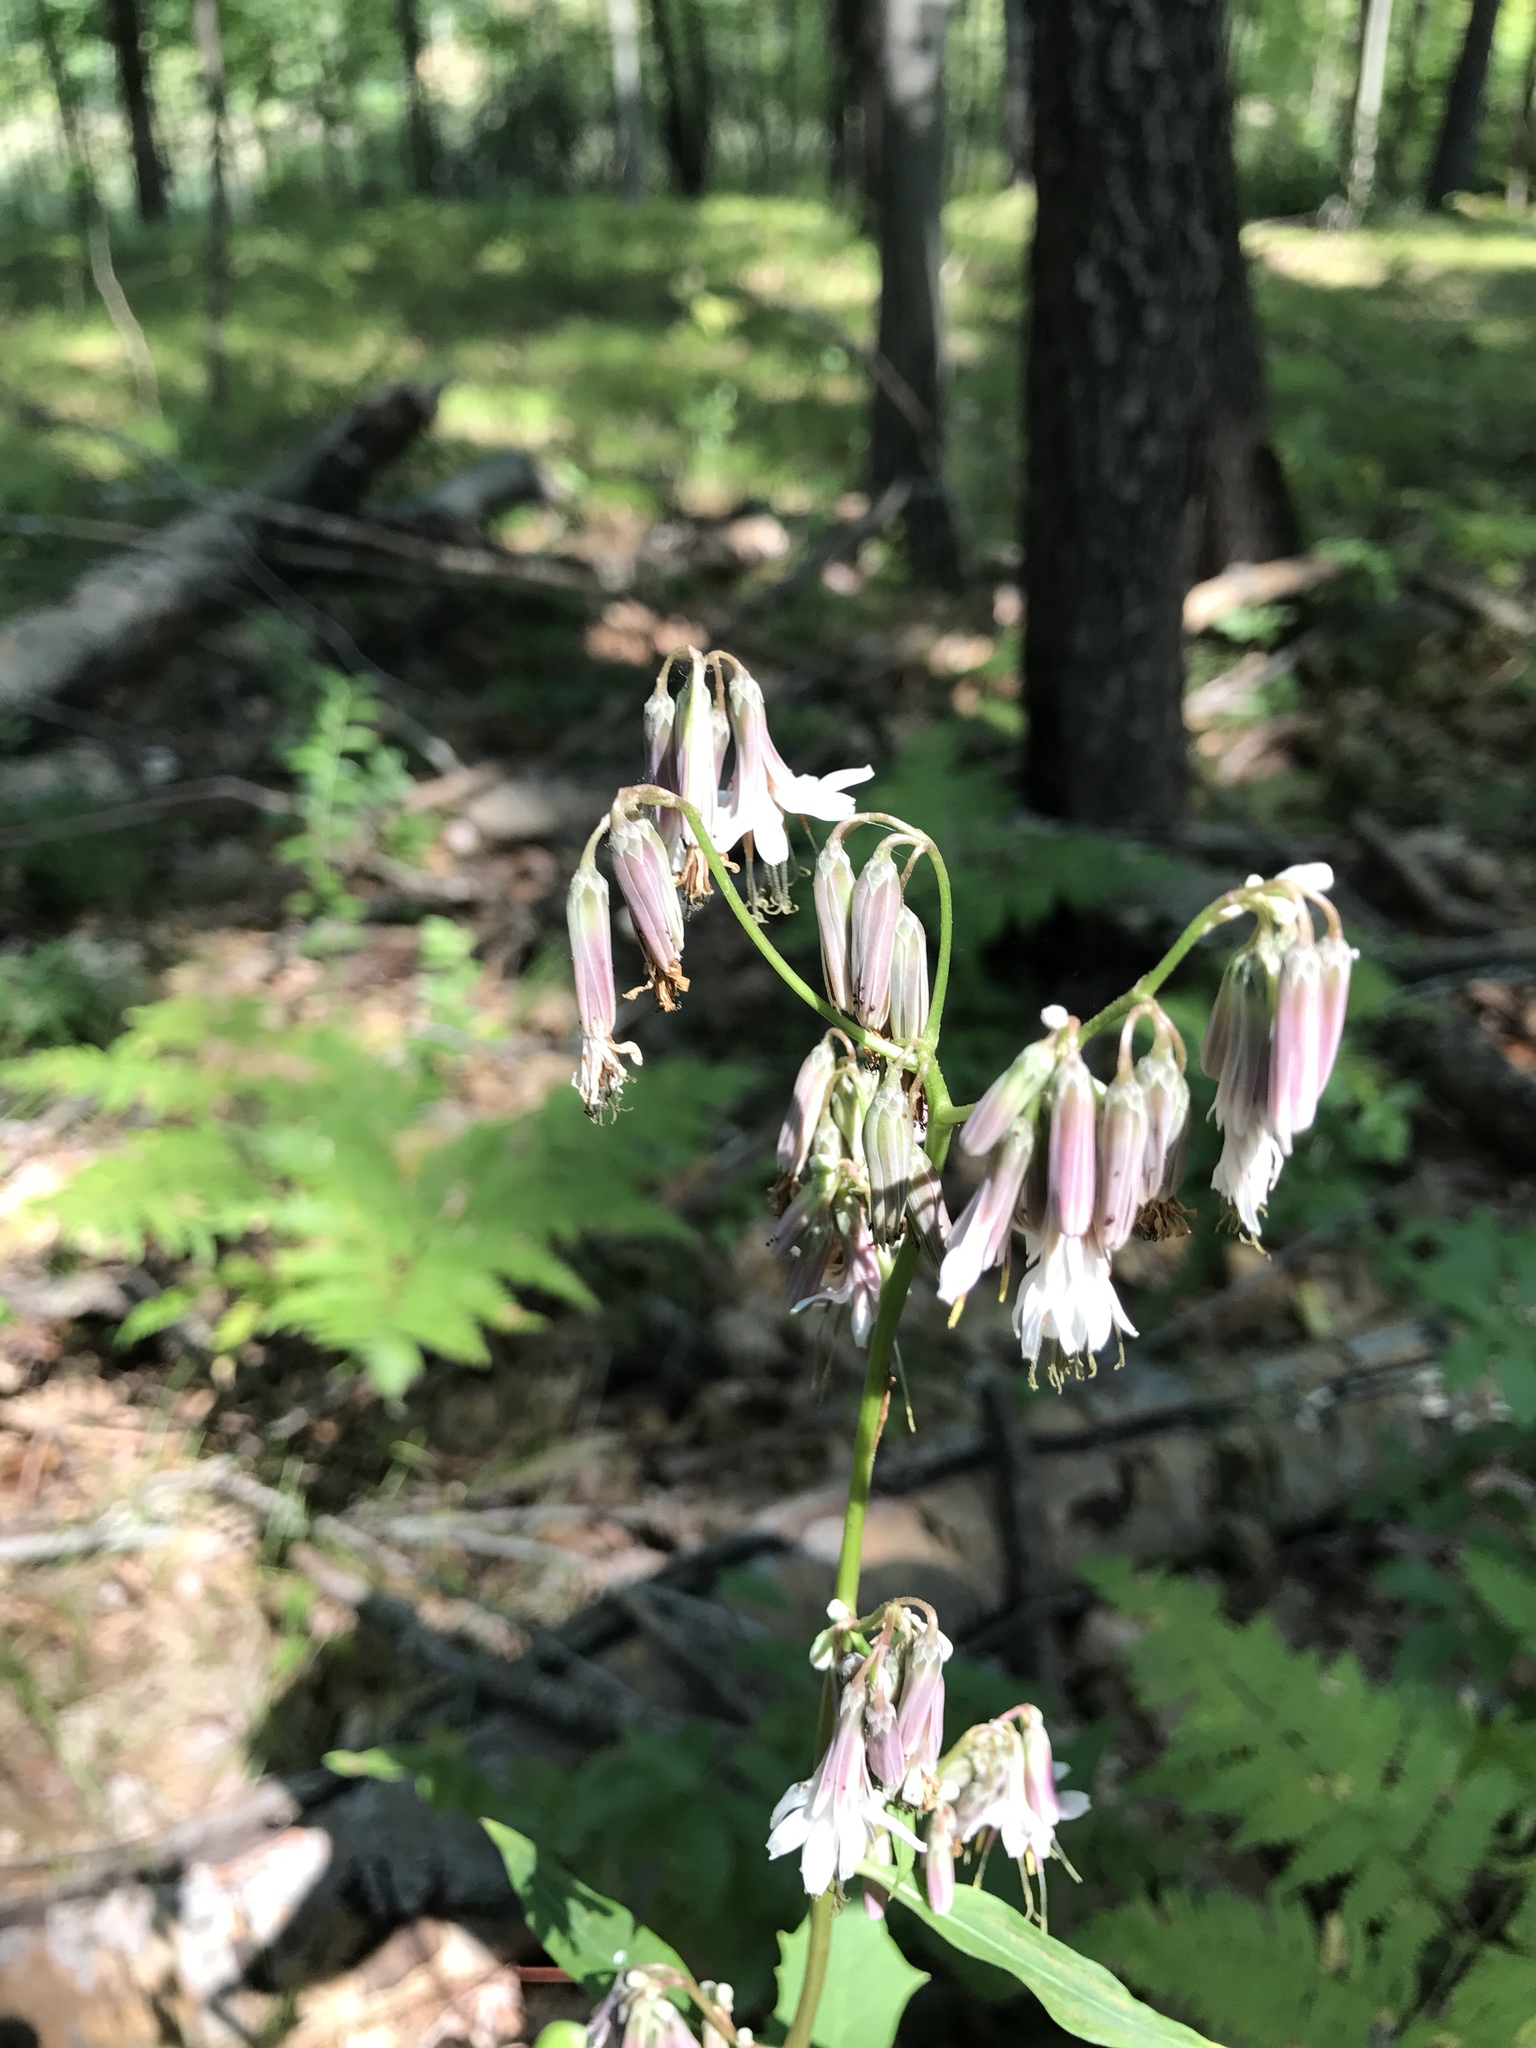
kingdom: Plantae
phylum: Tracheophyta
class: Magnoliopsida
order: Asterales
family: Asteraceae
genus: Nabalus
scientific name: Nabalus albus
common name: White rattlesnakeroot
